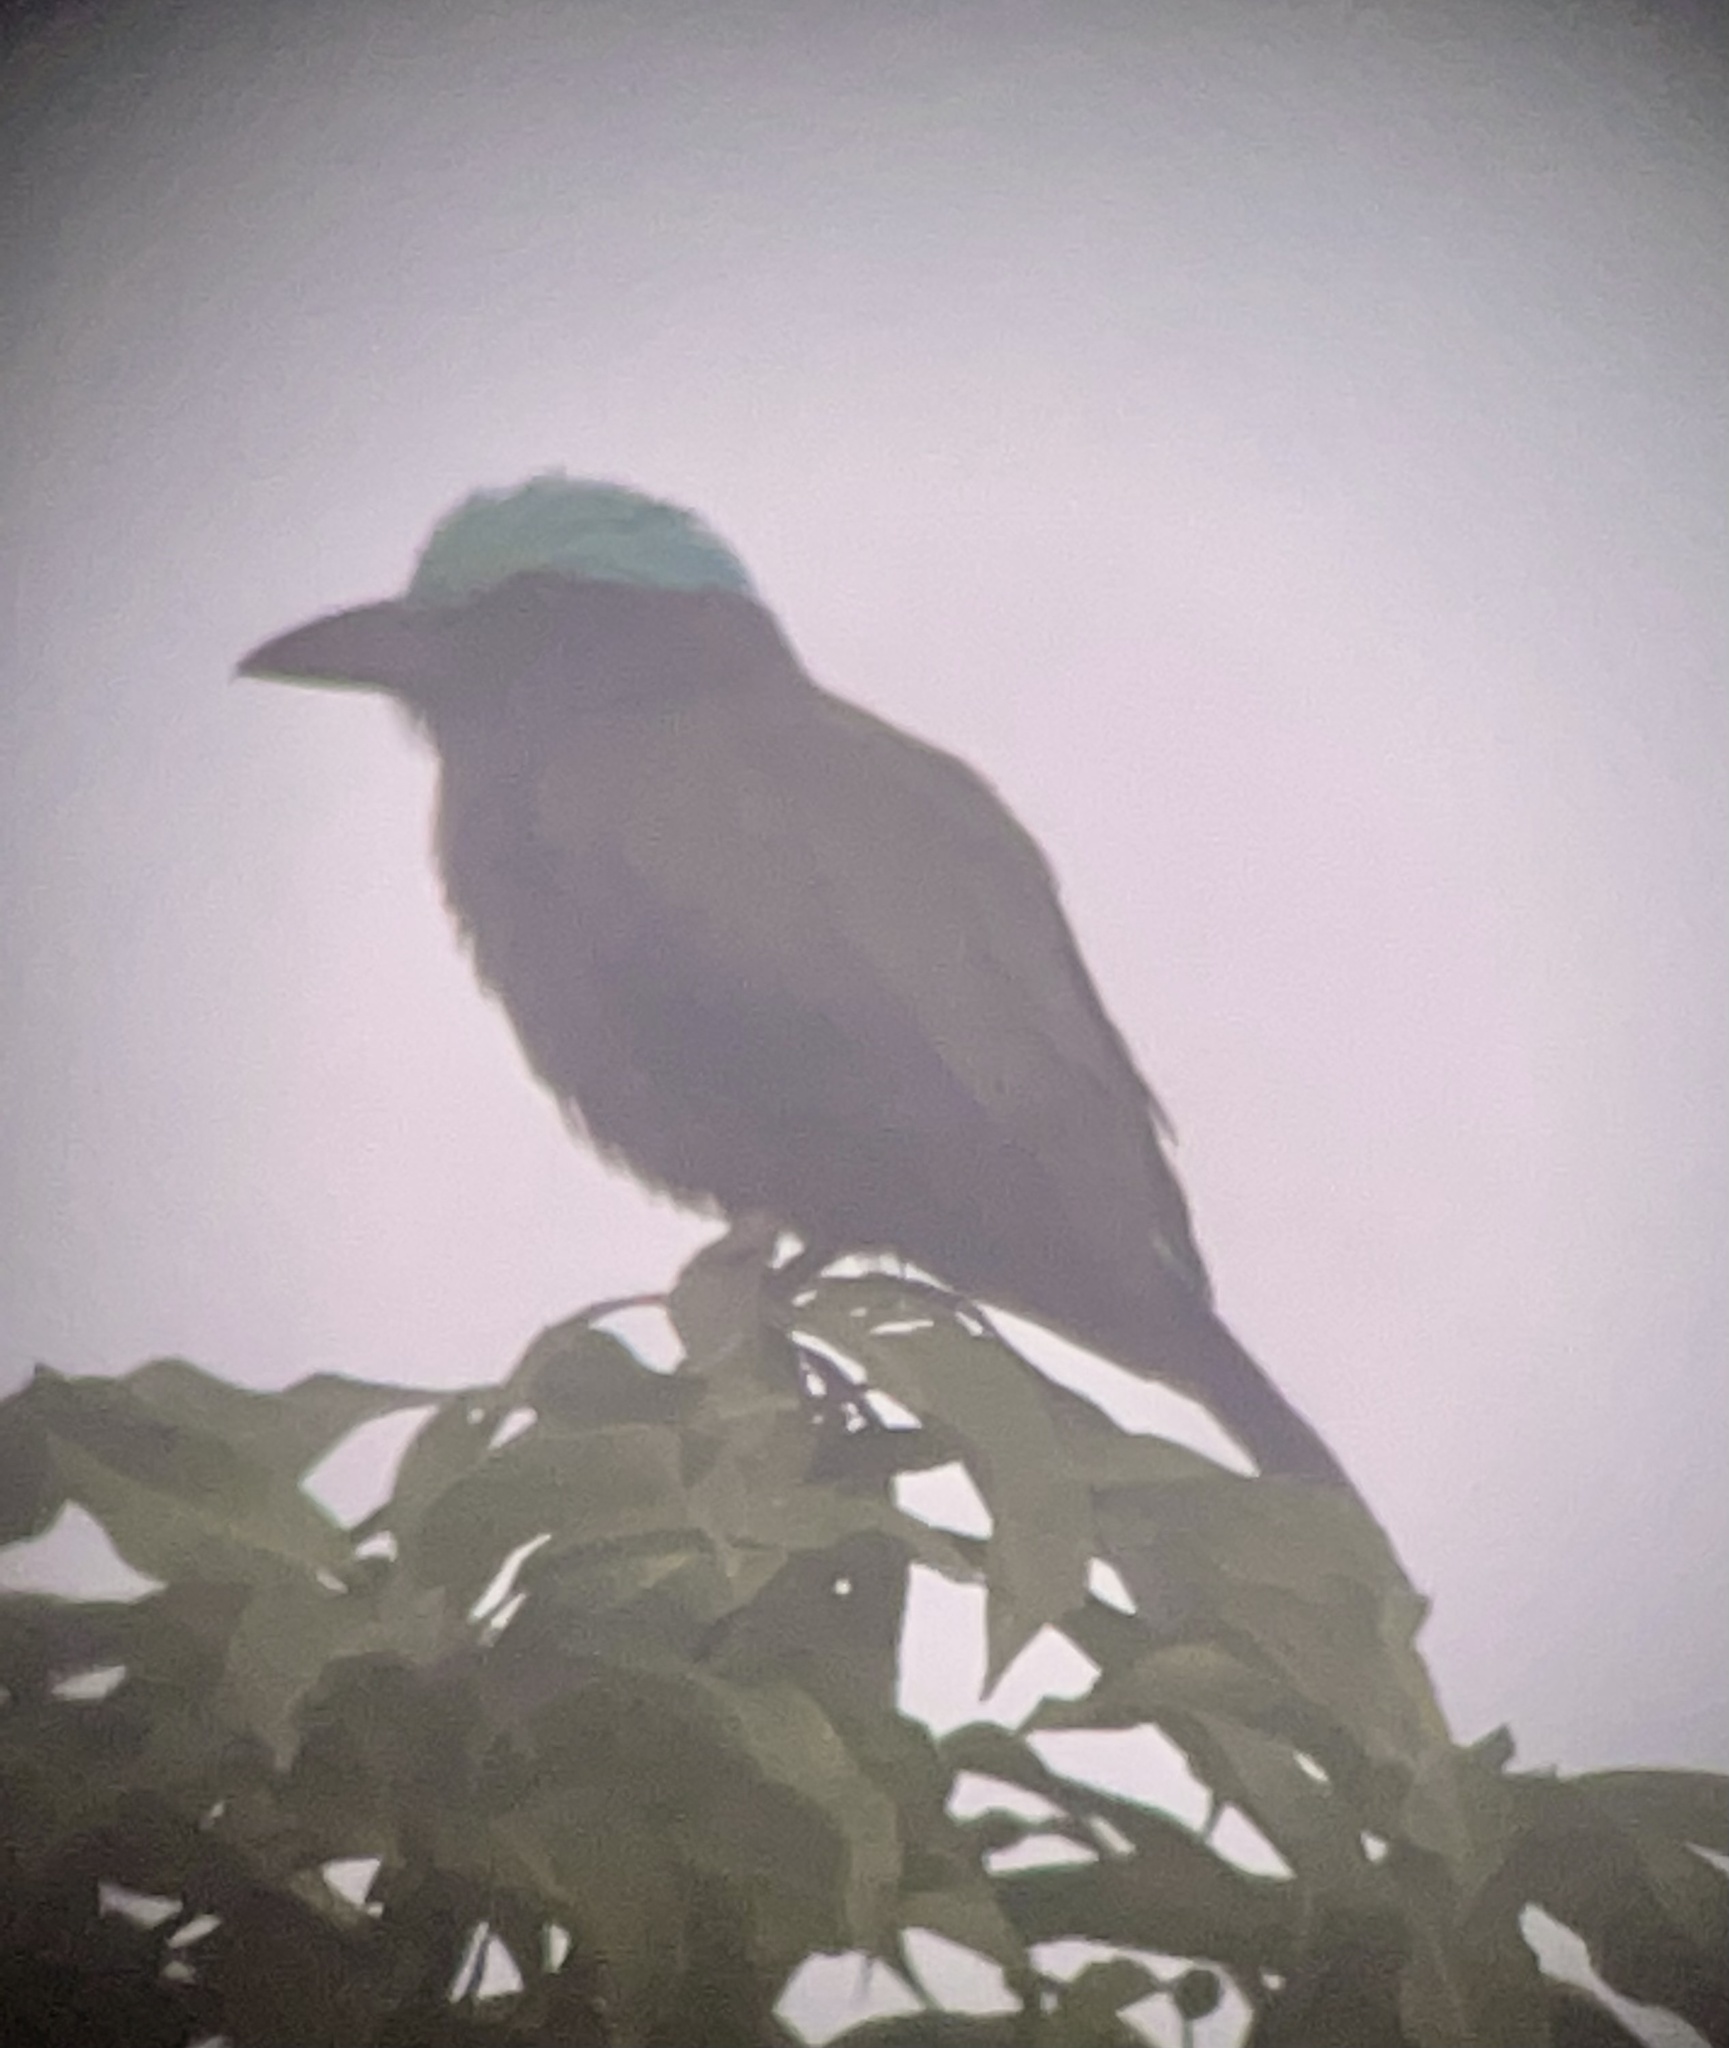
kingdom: Animalia
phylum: Chordata
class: Aves
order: Coraciiformes
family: Coraciidae
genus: Coracias
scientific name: Coracias temminckii
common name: Purple-winged roller
